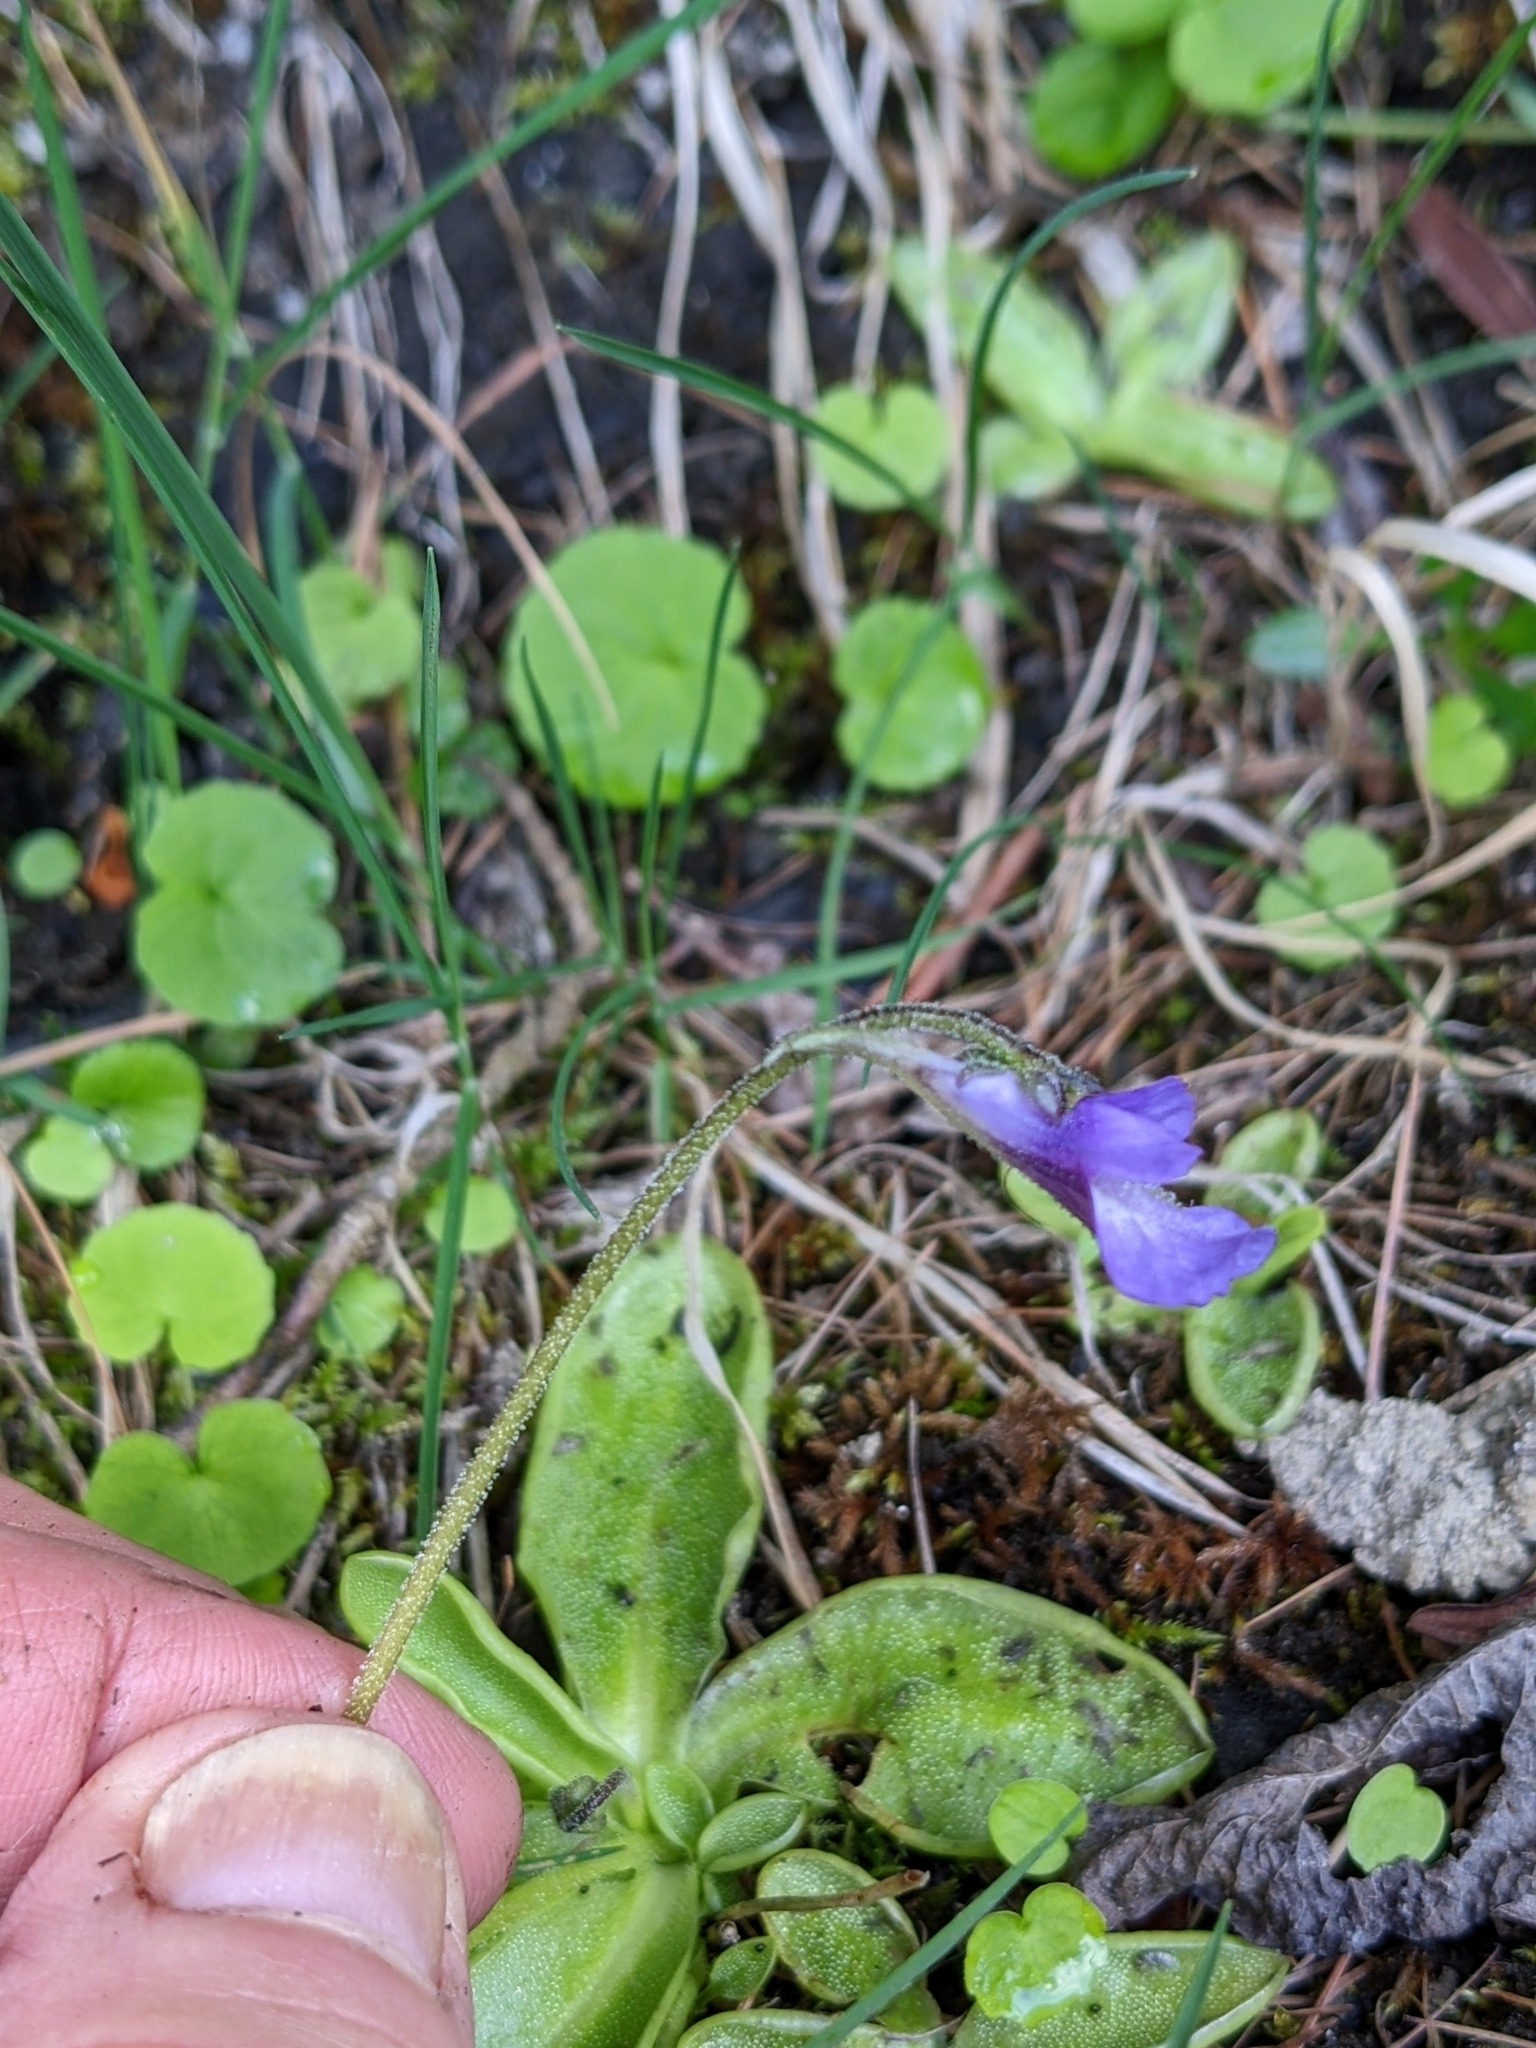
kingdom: Plantae
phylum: Tracheophyta
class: Magnoliopsida
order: Lamiales
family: Lentibulariaceae
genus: Pinguicula
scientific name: Pinguicula vulgaris
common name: Common butterwort
